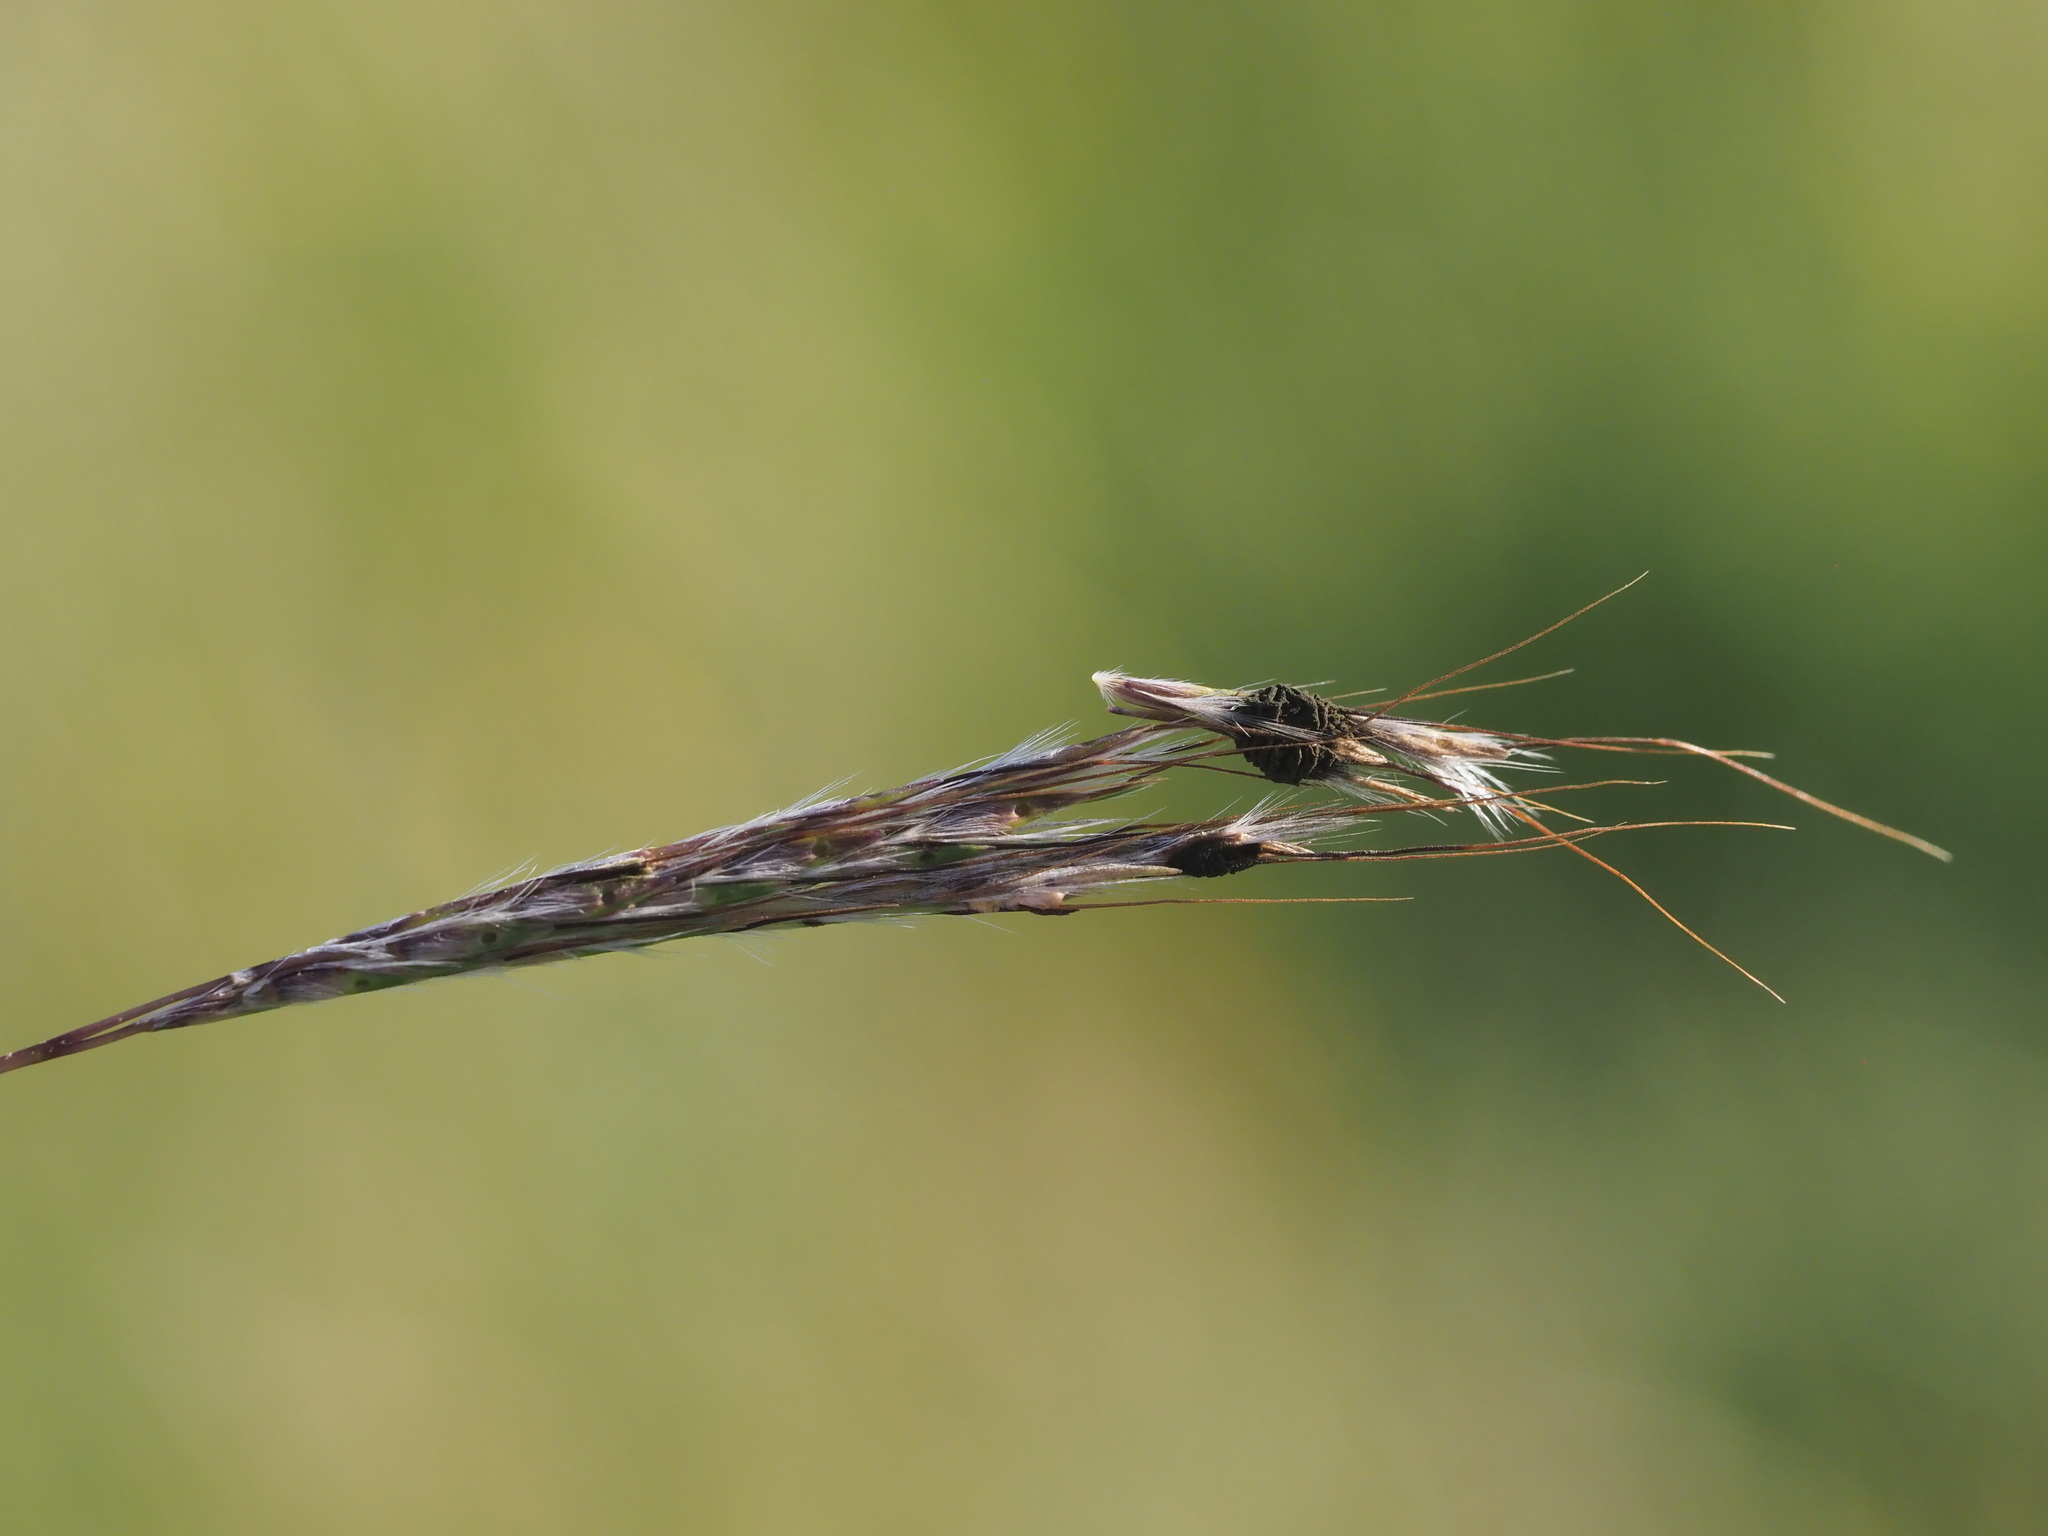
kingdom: Fungi
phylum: Ascomycota
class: Dothideomycetes
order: Pleosporales
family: Didymellaceae
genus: Epicoccum
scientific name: Epicoccum andropogonis
